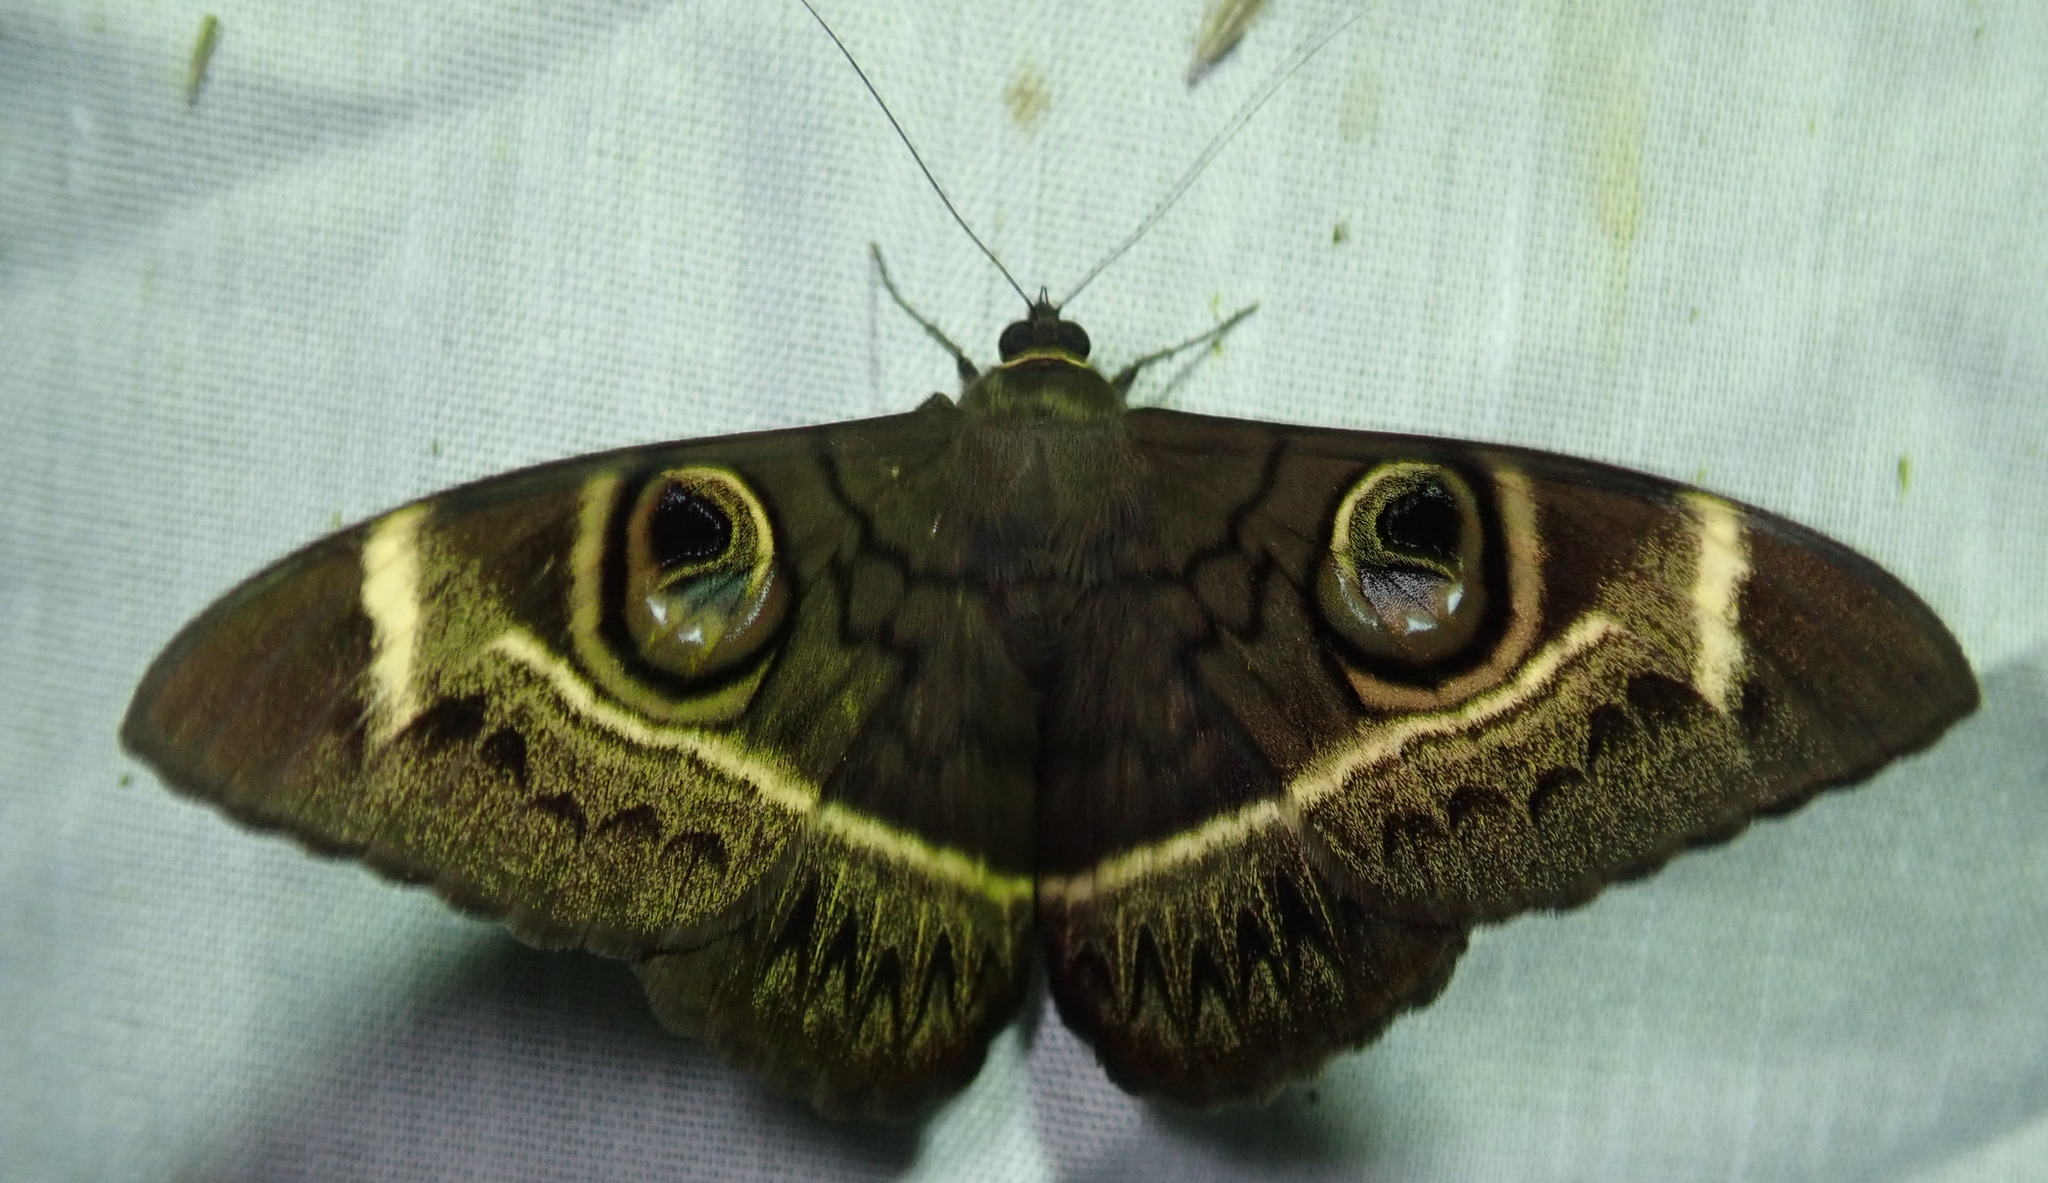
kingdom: Animalia
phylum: Arthropoda
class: Insecta
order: Lepidoptera
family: Erebidae
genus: Cyligramma
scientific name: Cyligramma latona
